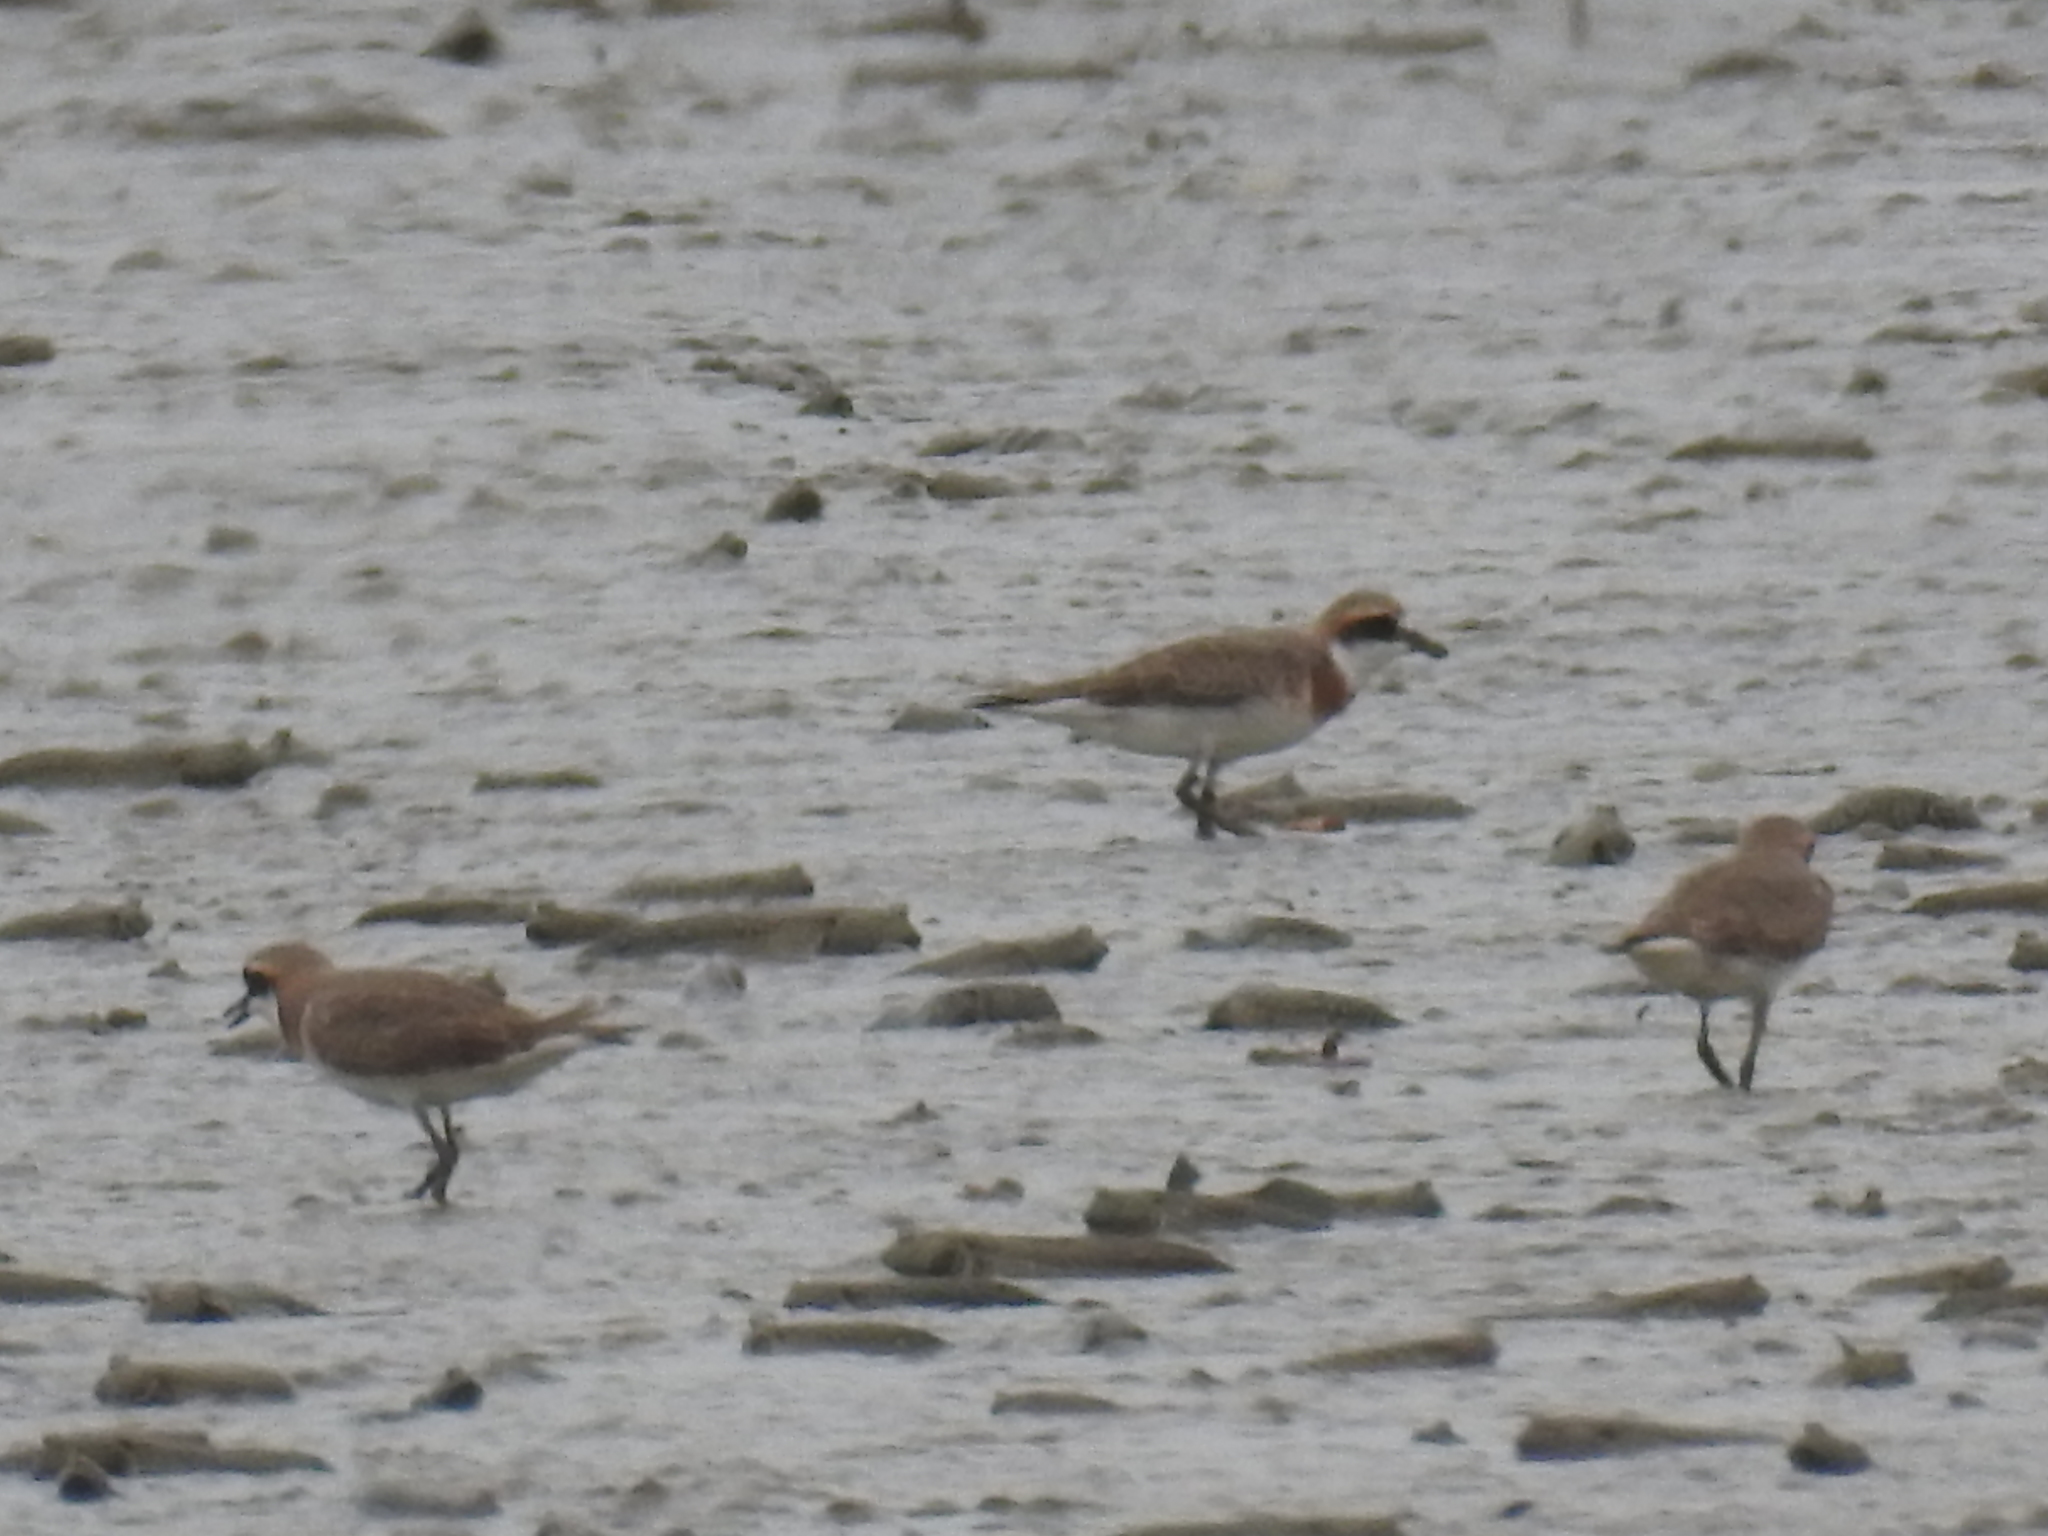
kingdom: Animalia
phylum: Chordata
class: Aves
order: Charadriiformes
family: Charadriidae
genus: Charadrius
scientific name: Charadrius leschenaultii
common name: Greater sand plover
